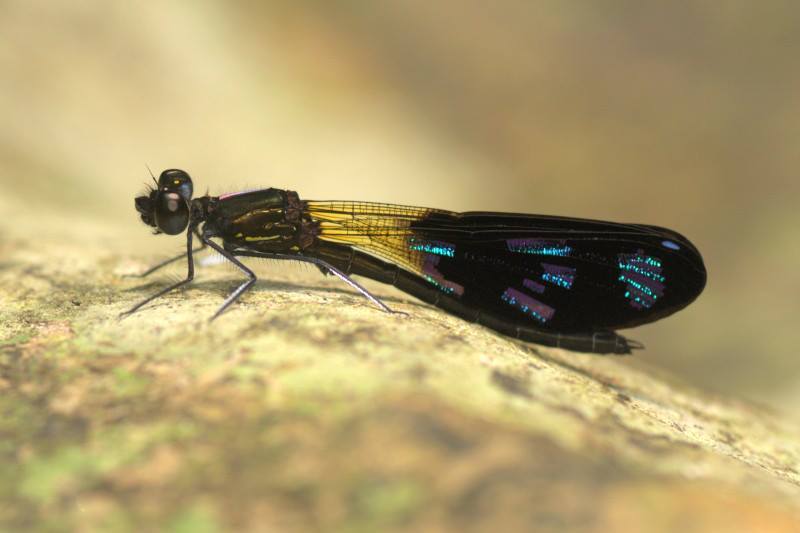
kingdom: Animalia
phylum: Arthropoda
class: Insecta
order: Odonata
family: Chlorocyphidae
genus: Aristocypha
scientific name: Aristocypha spuria
